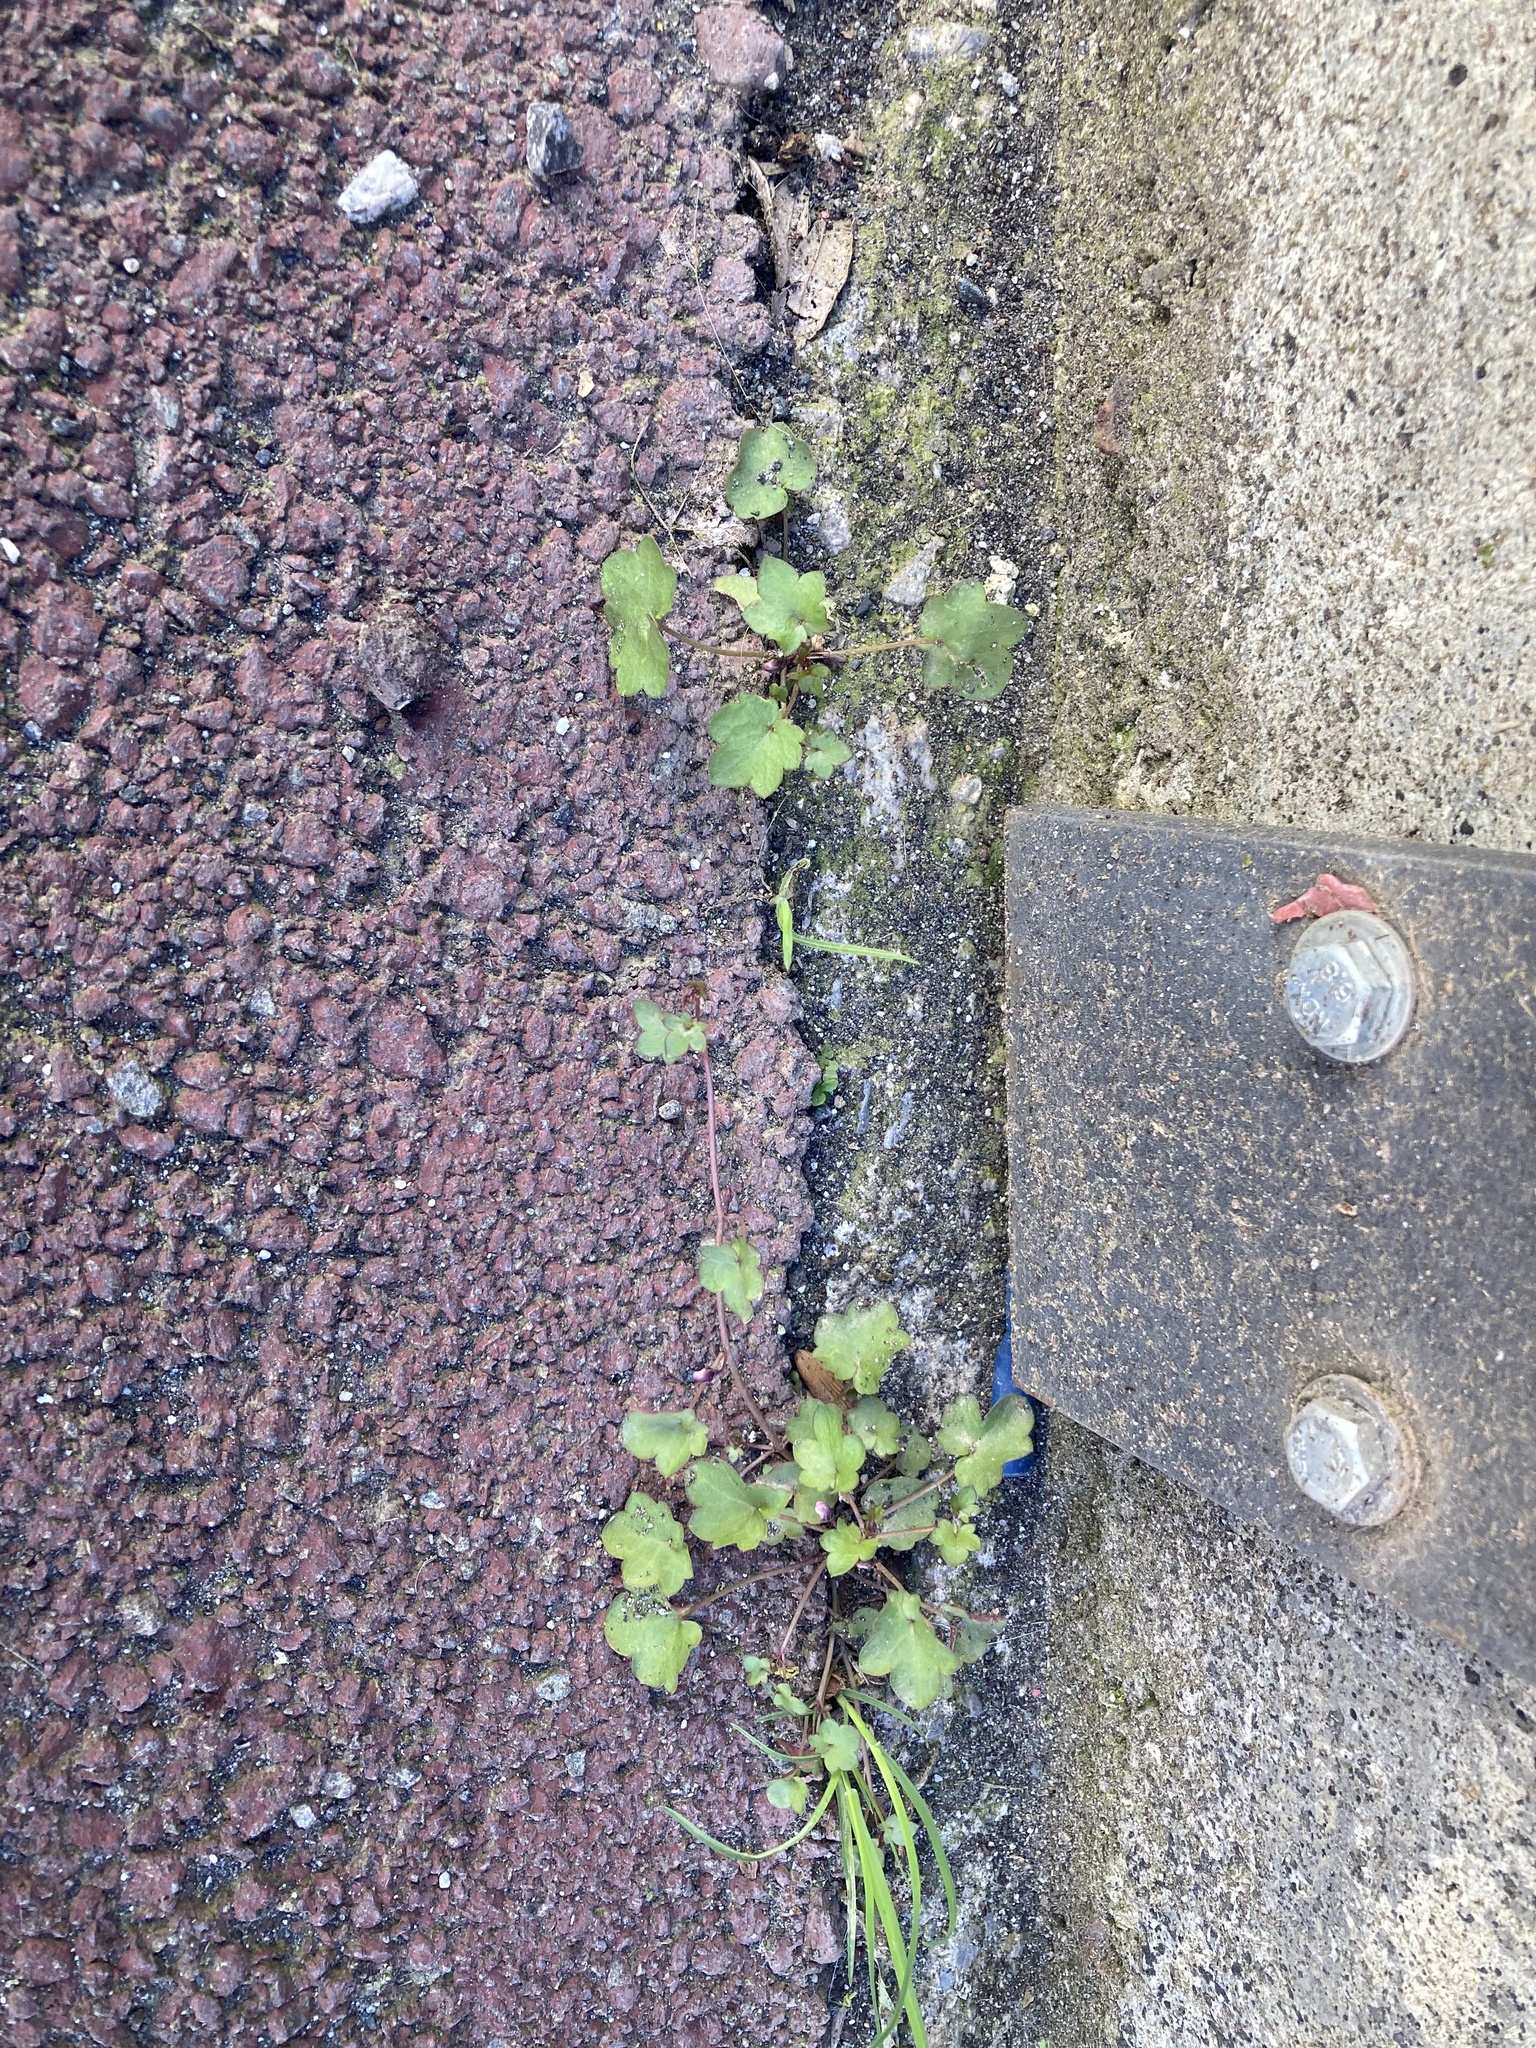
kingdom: Plantae
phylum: Tracheophyta
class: Magnoliopsida
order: Lamiales
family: Plantaginaceae
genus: Cymbalaria
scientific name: Cymbalaria muralis
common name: Ivy-leaved toadflax
